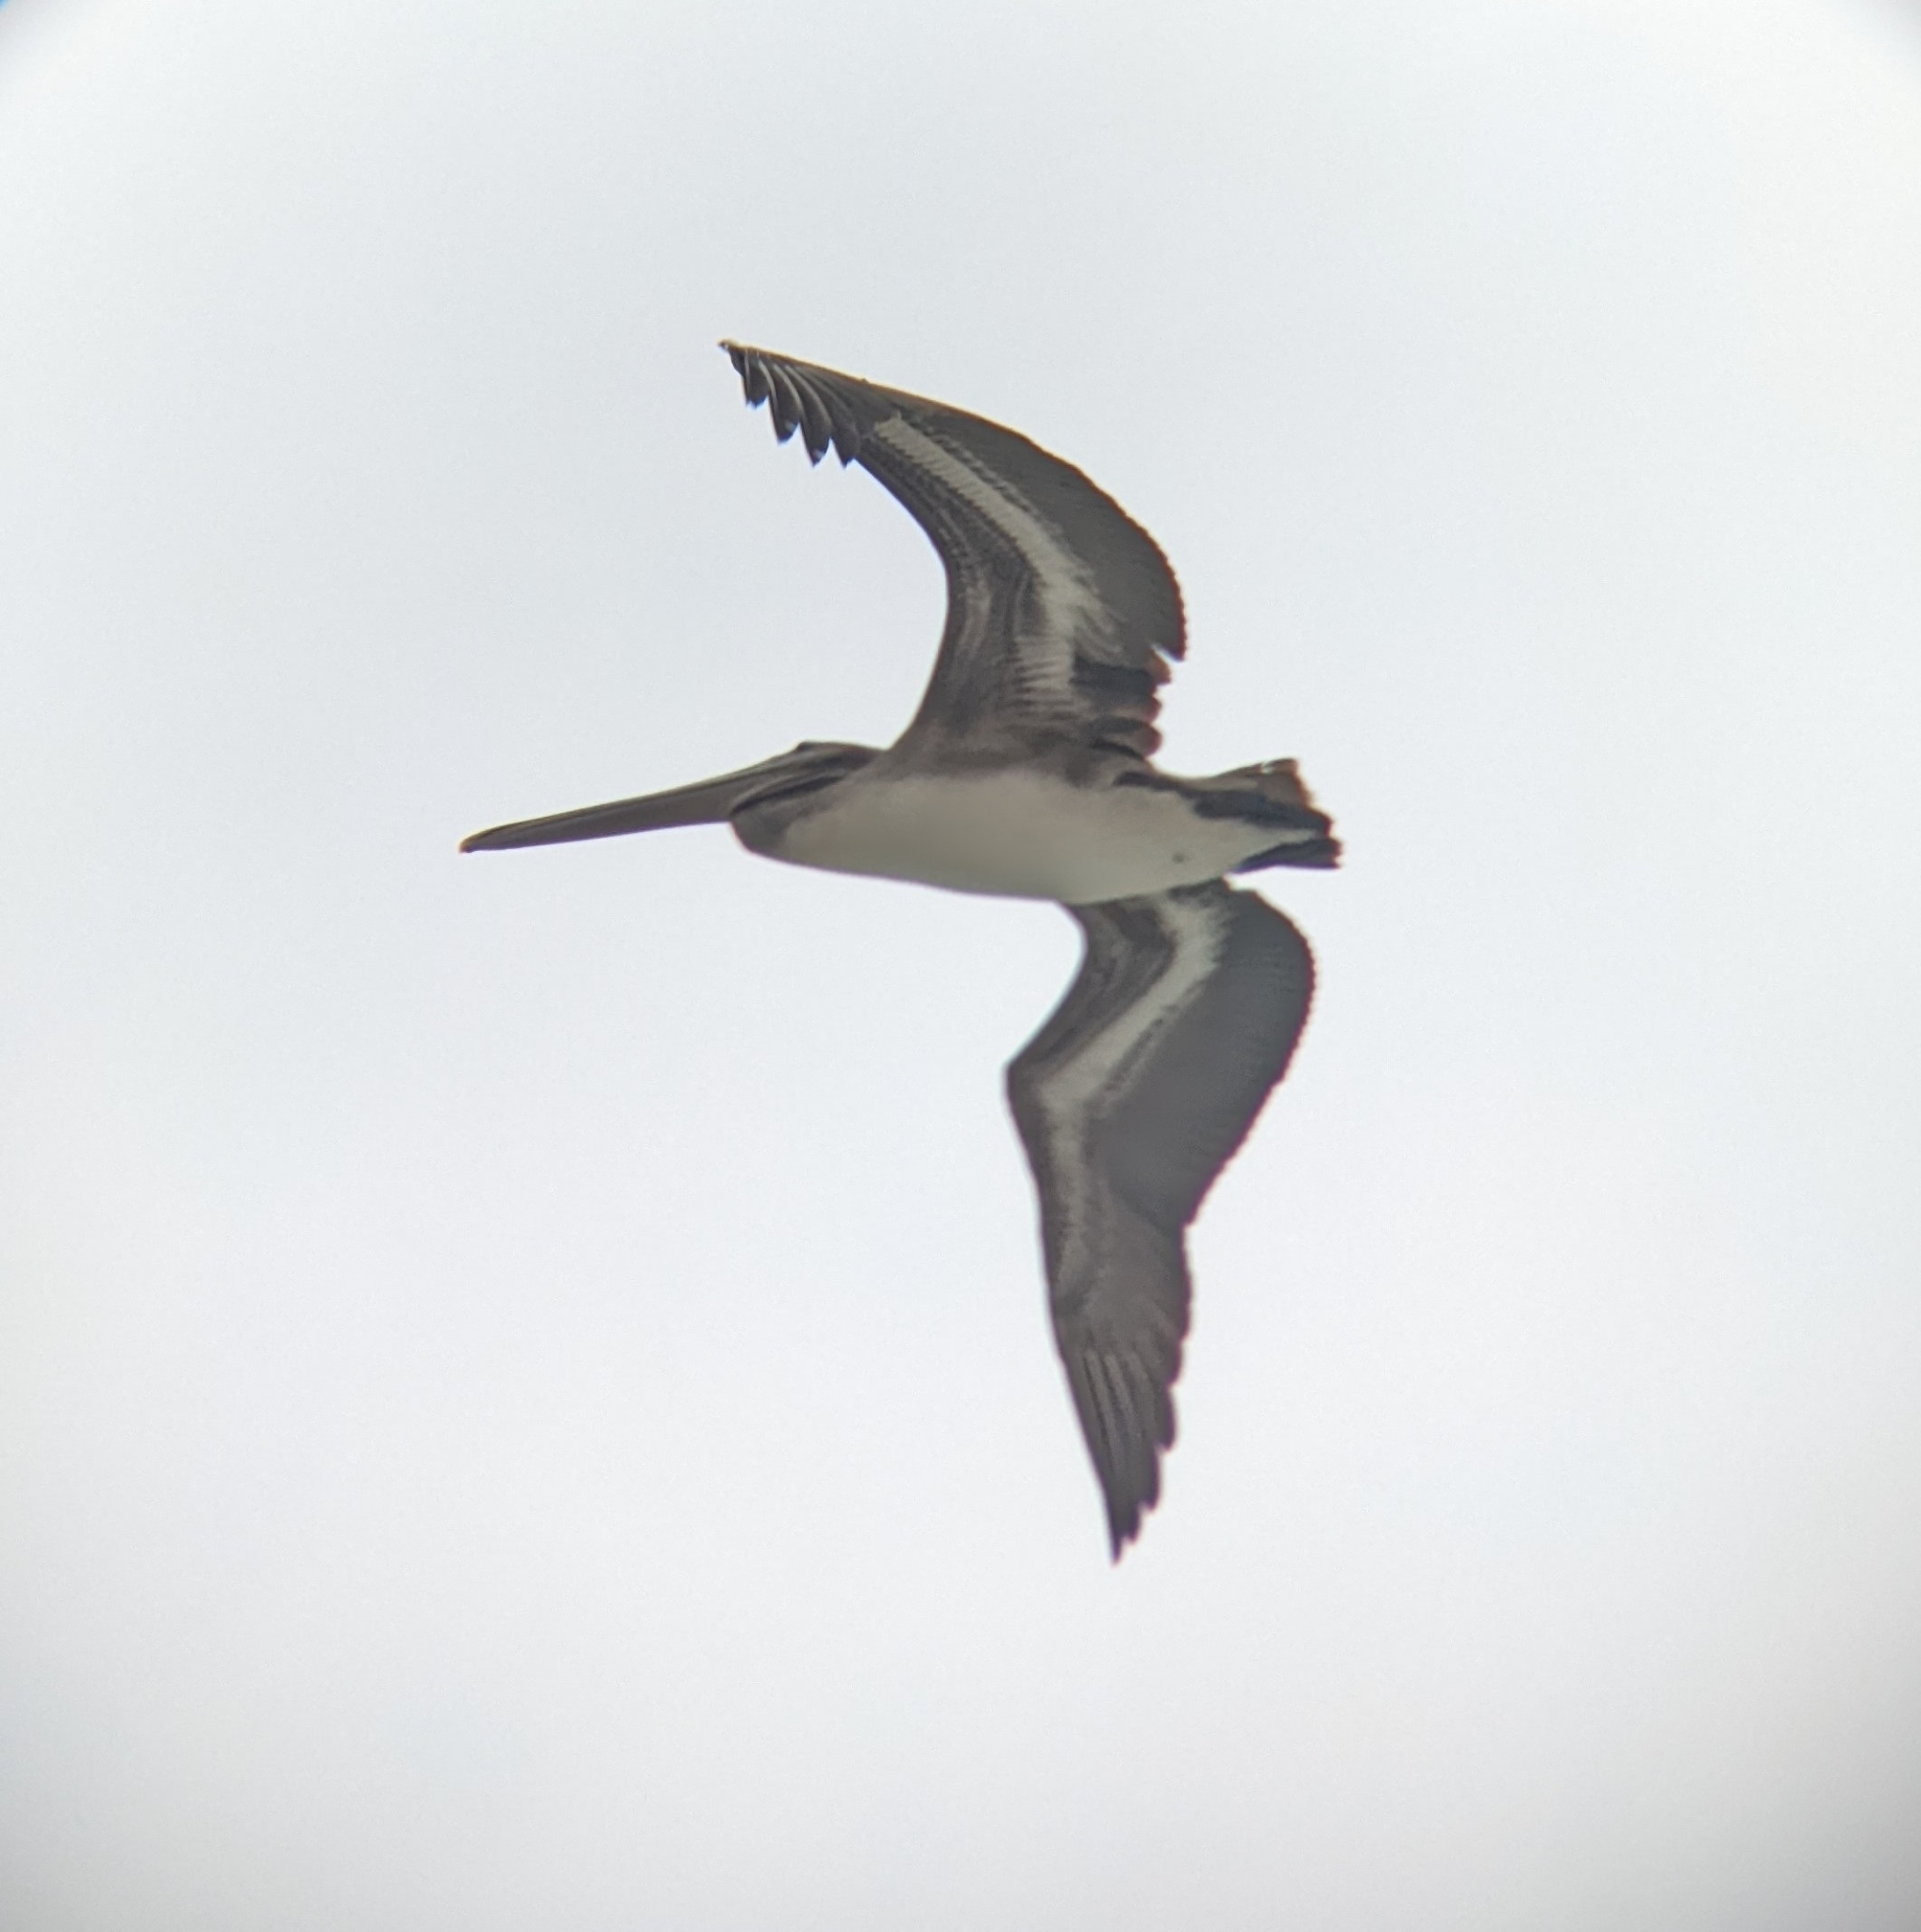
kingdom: Animalia
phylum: Chordata
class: Aves
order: Pelecaniformes
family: Pelecanidae
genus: Pelecanus
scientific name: Pelecanus occidentalis
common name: Brown pelican
